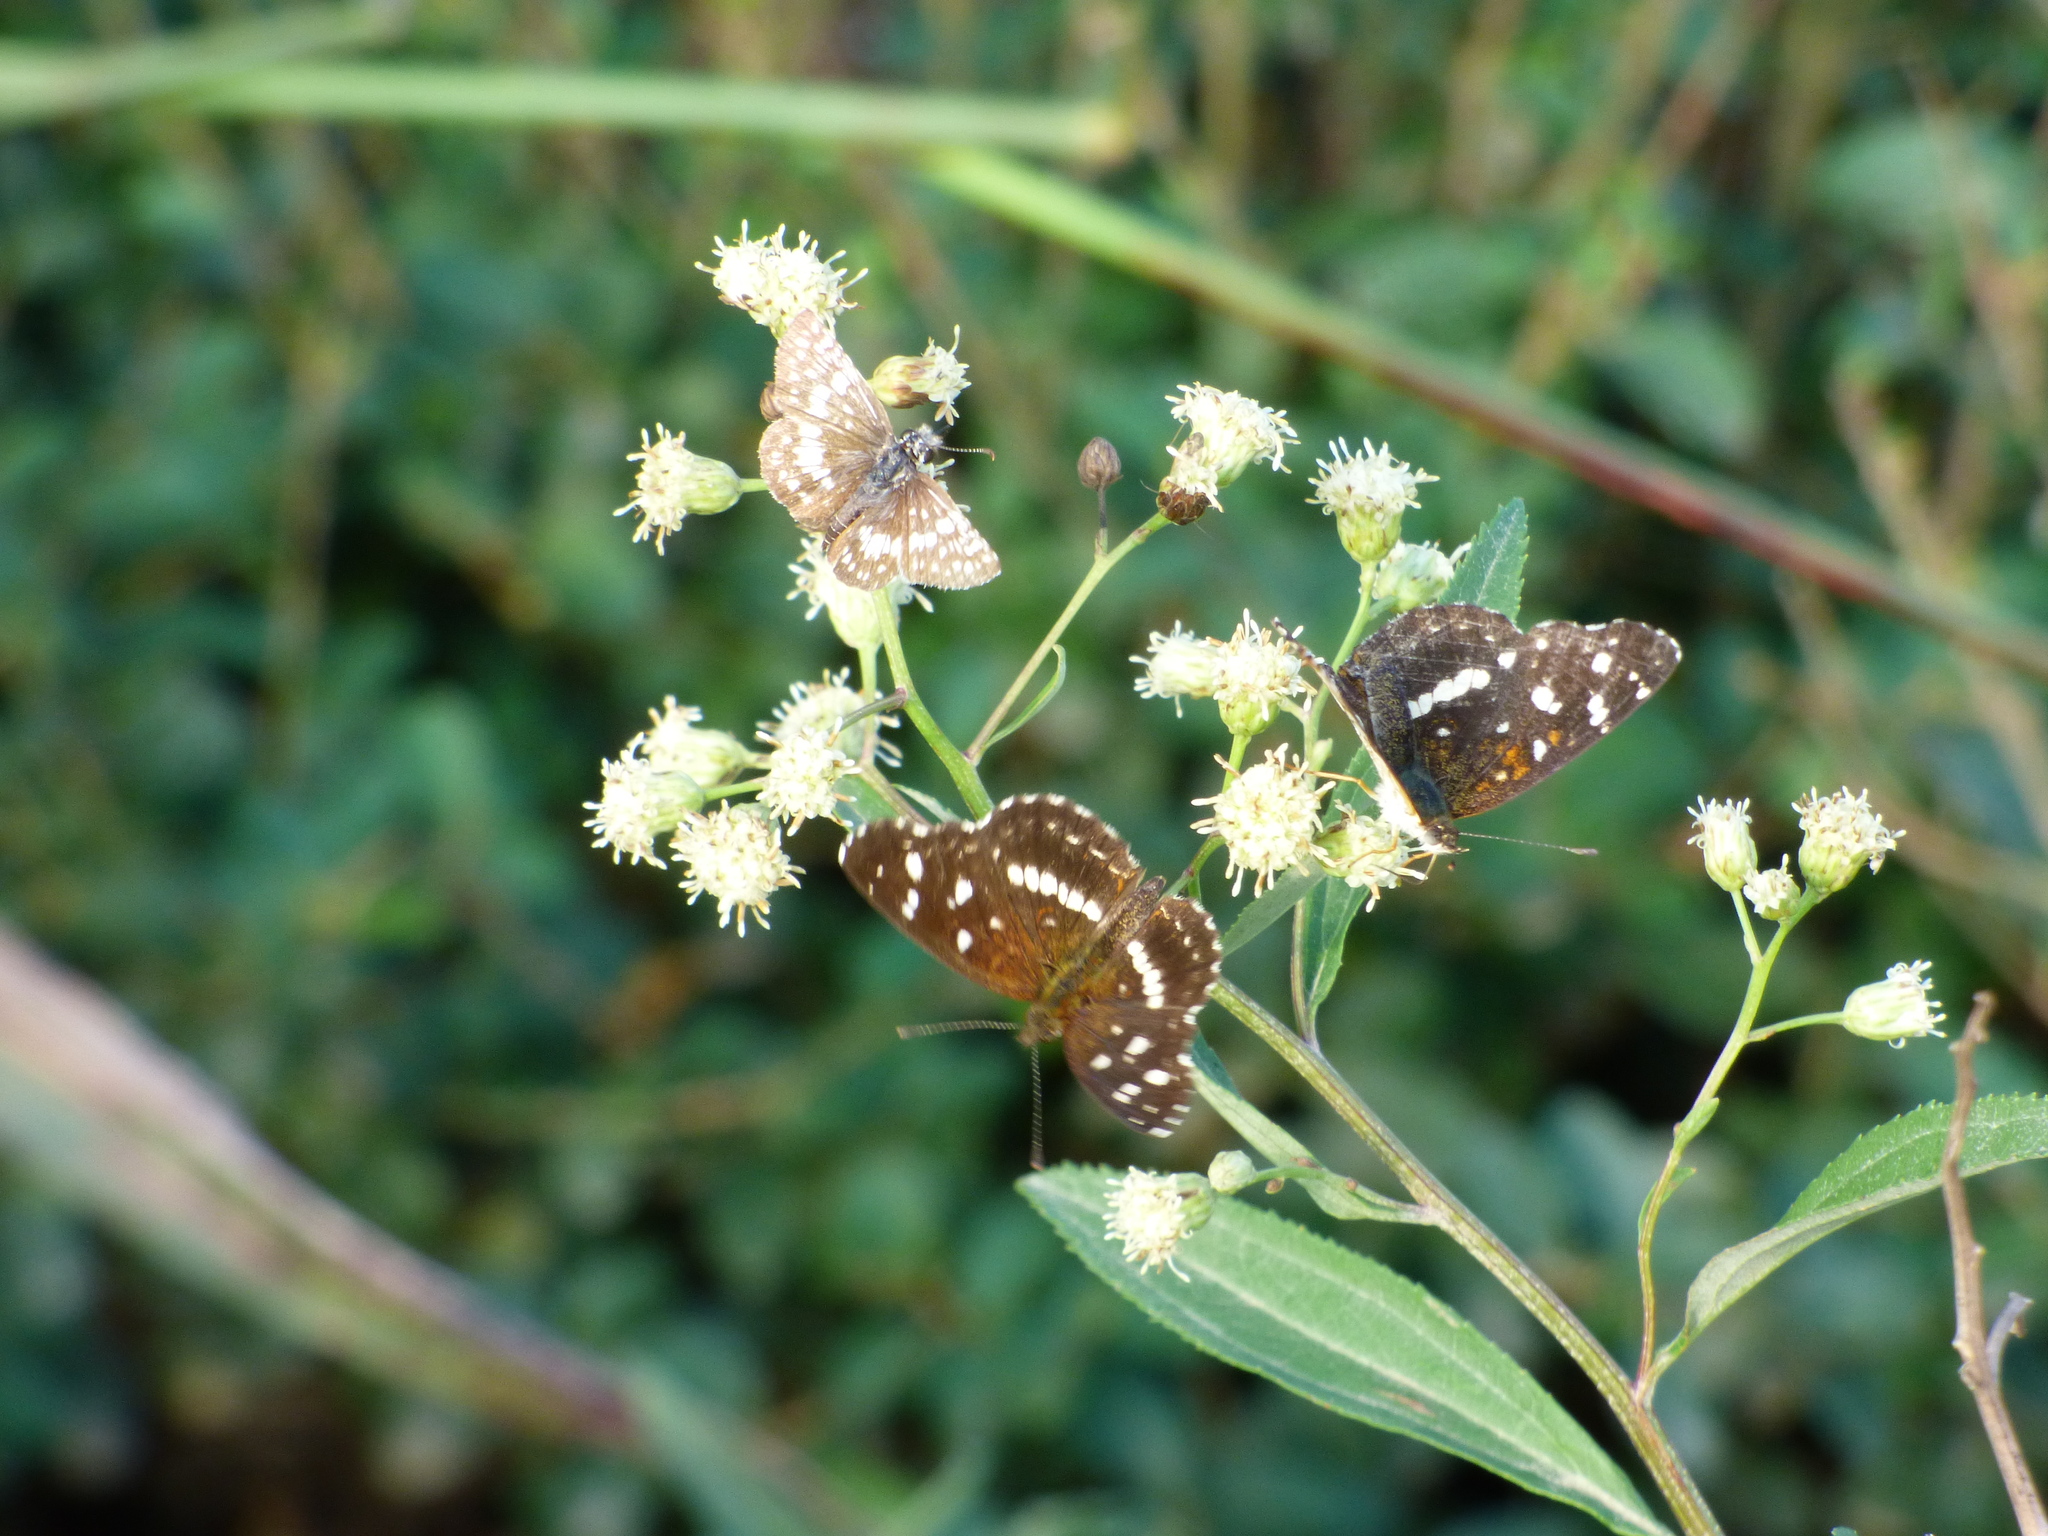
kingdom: Animalia
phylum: Arthropoda
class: Insecta
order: Lepidoptera
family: Nymphalidae
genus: Ortilia
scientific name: Ortilia ithra
